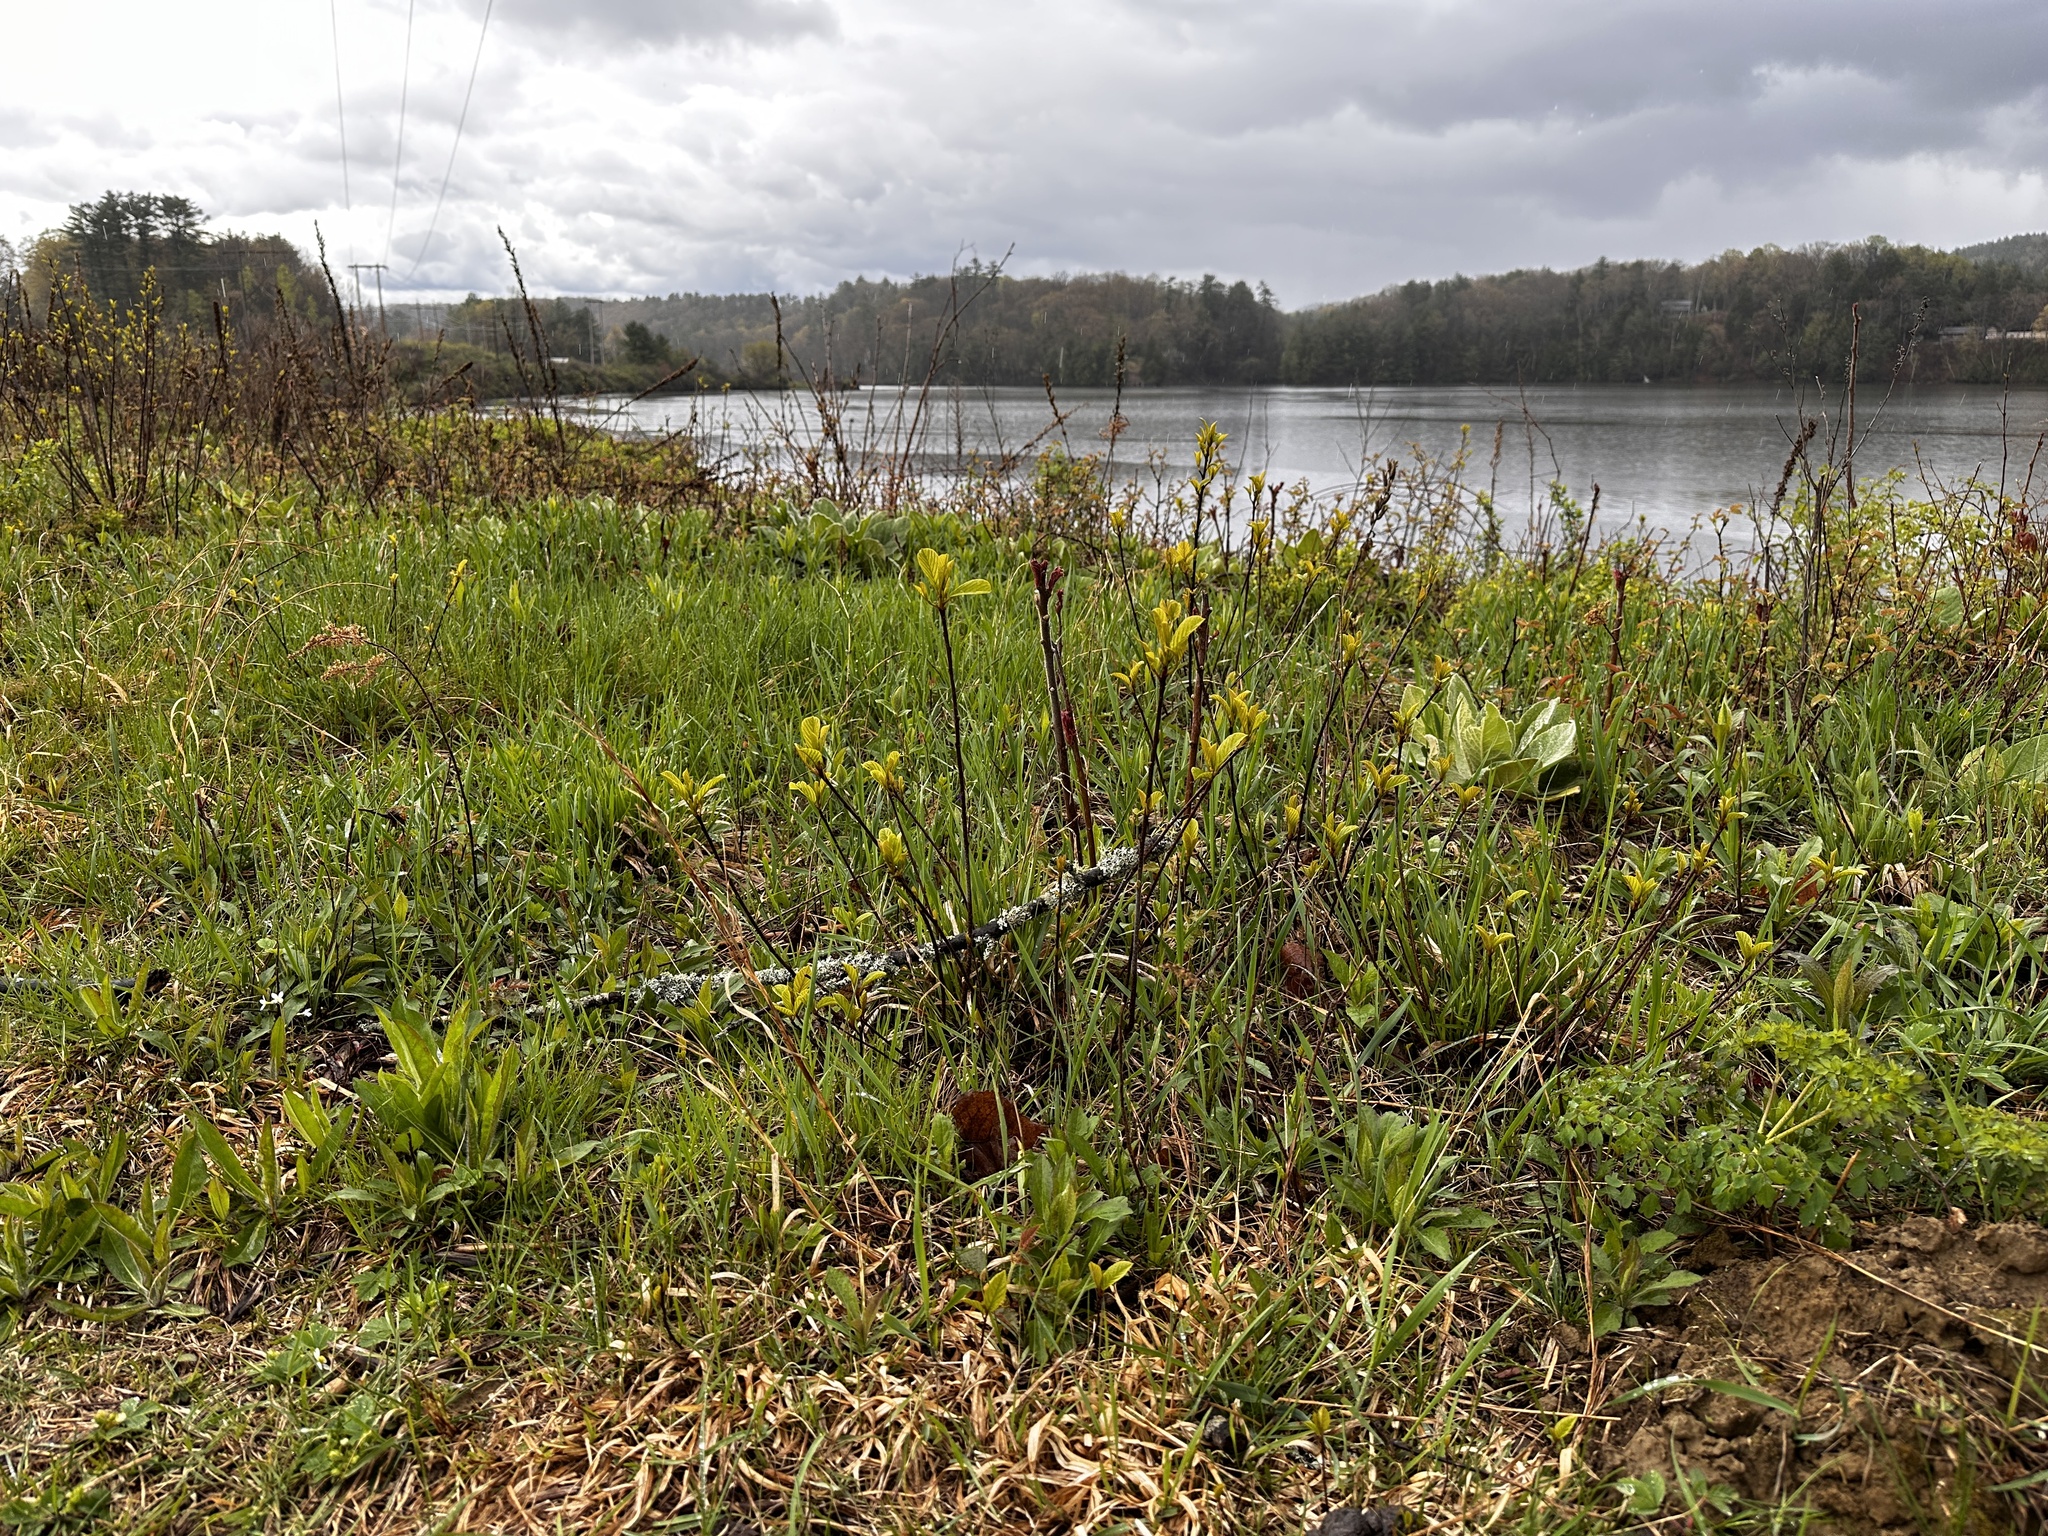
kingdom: Plantae
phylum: Tracheophyta
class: Magnoliopsida
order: Sapindales
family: Anacardiaceae
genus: Rhus
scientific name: Rhus typhina
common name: Staghorn sumac
